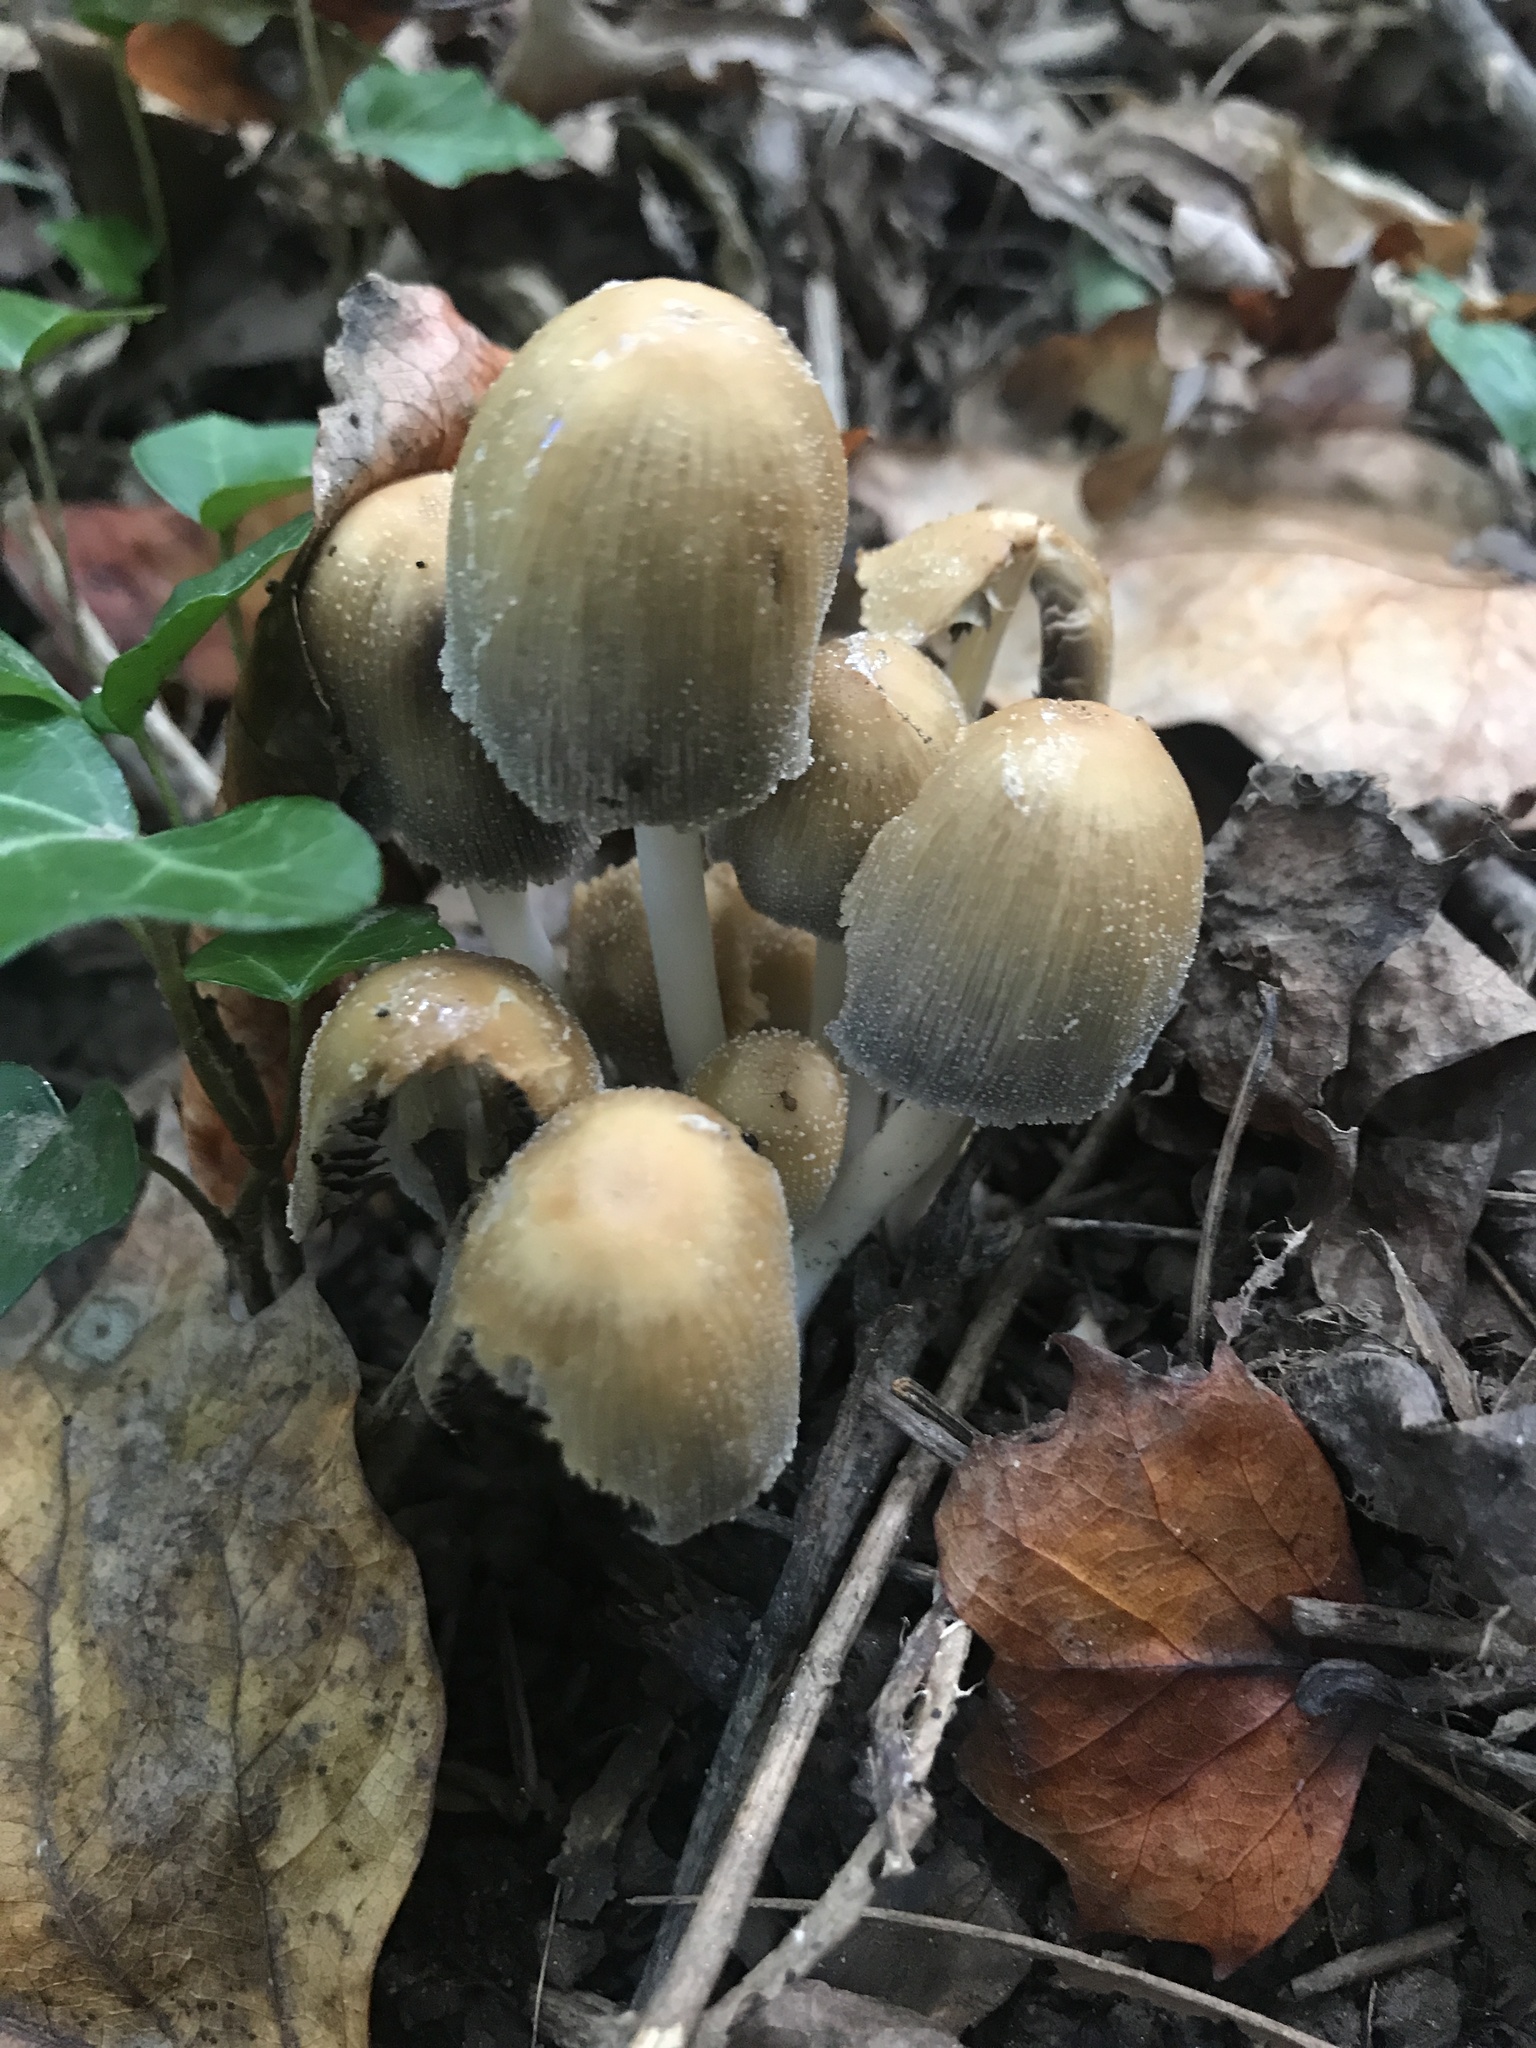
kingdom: Fungi
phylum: Basidiomycota
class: Agaricomycetes
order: Agaricales
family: Psathyrellaceae
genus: Coprinellus
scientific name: Coprinellus micaceus
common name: Glistening ink-cap
